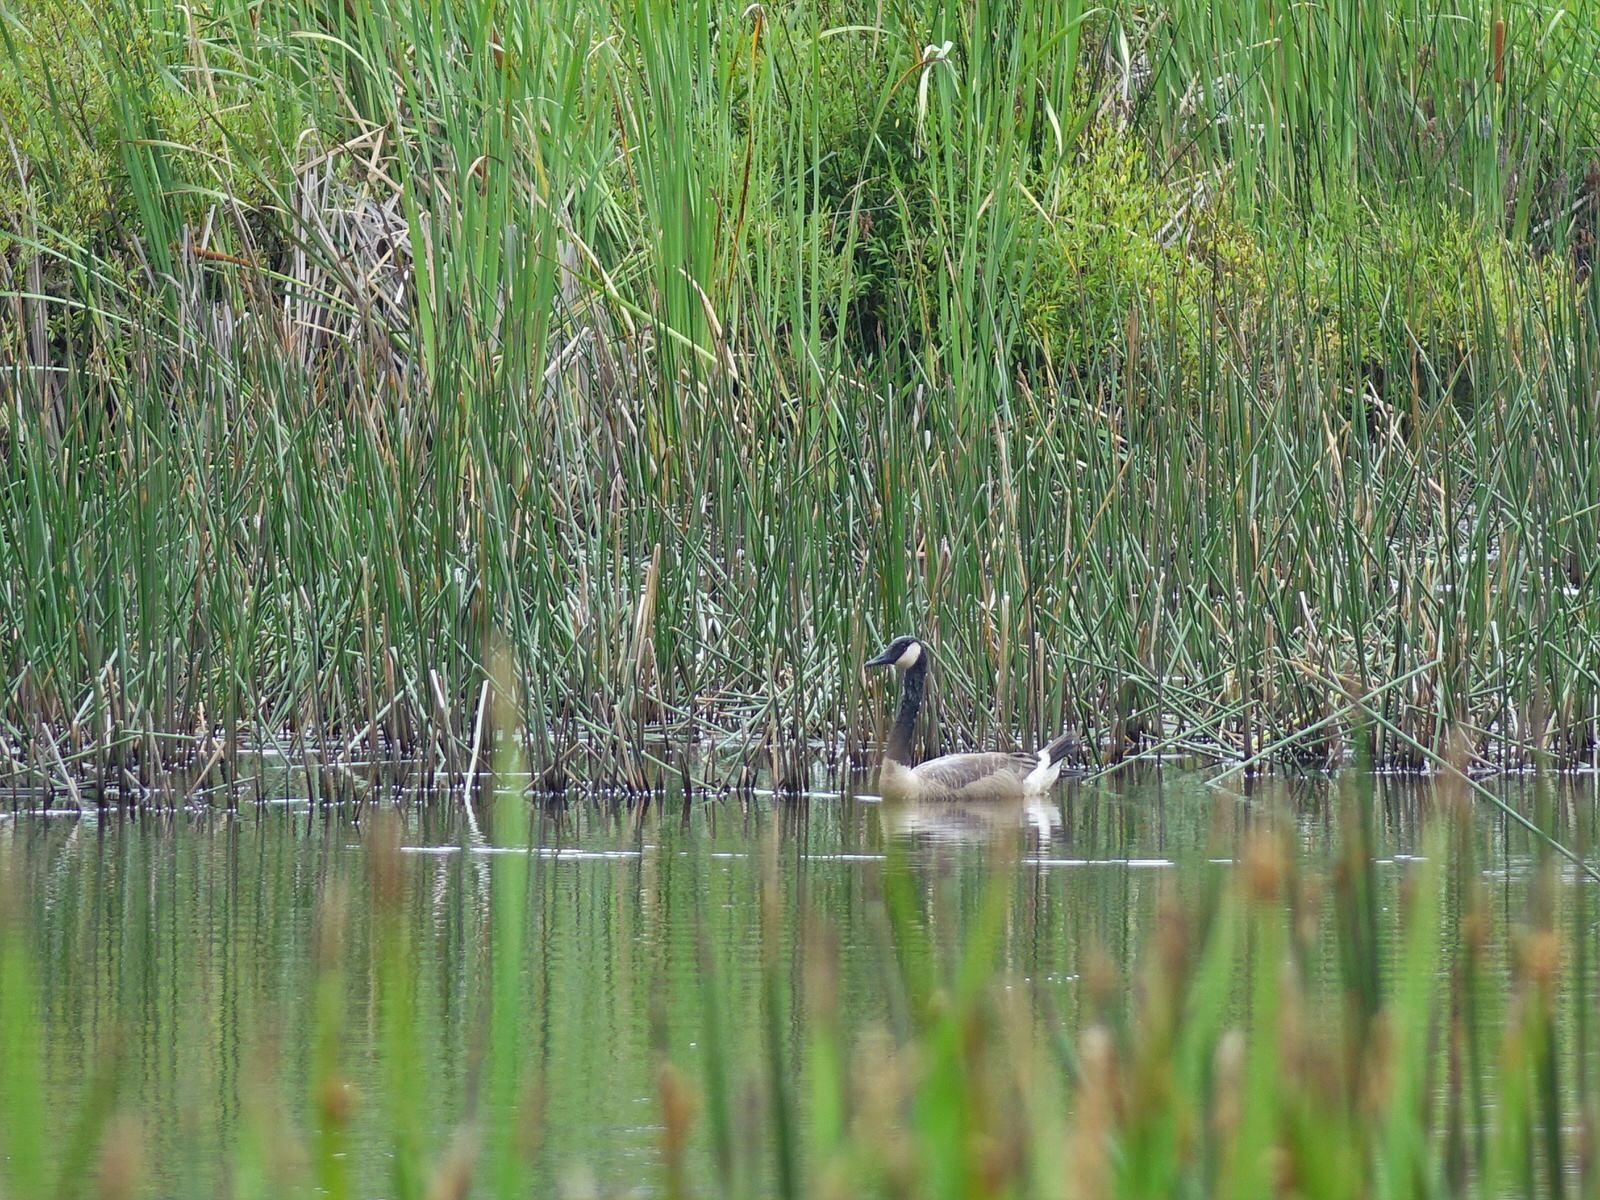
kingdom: Animalia
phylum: Chordata
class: Aves
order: Anseriformes
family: Anatidae
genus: Branta
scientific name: Branta canadensis
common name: Canada goose
